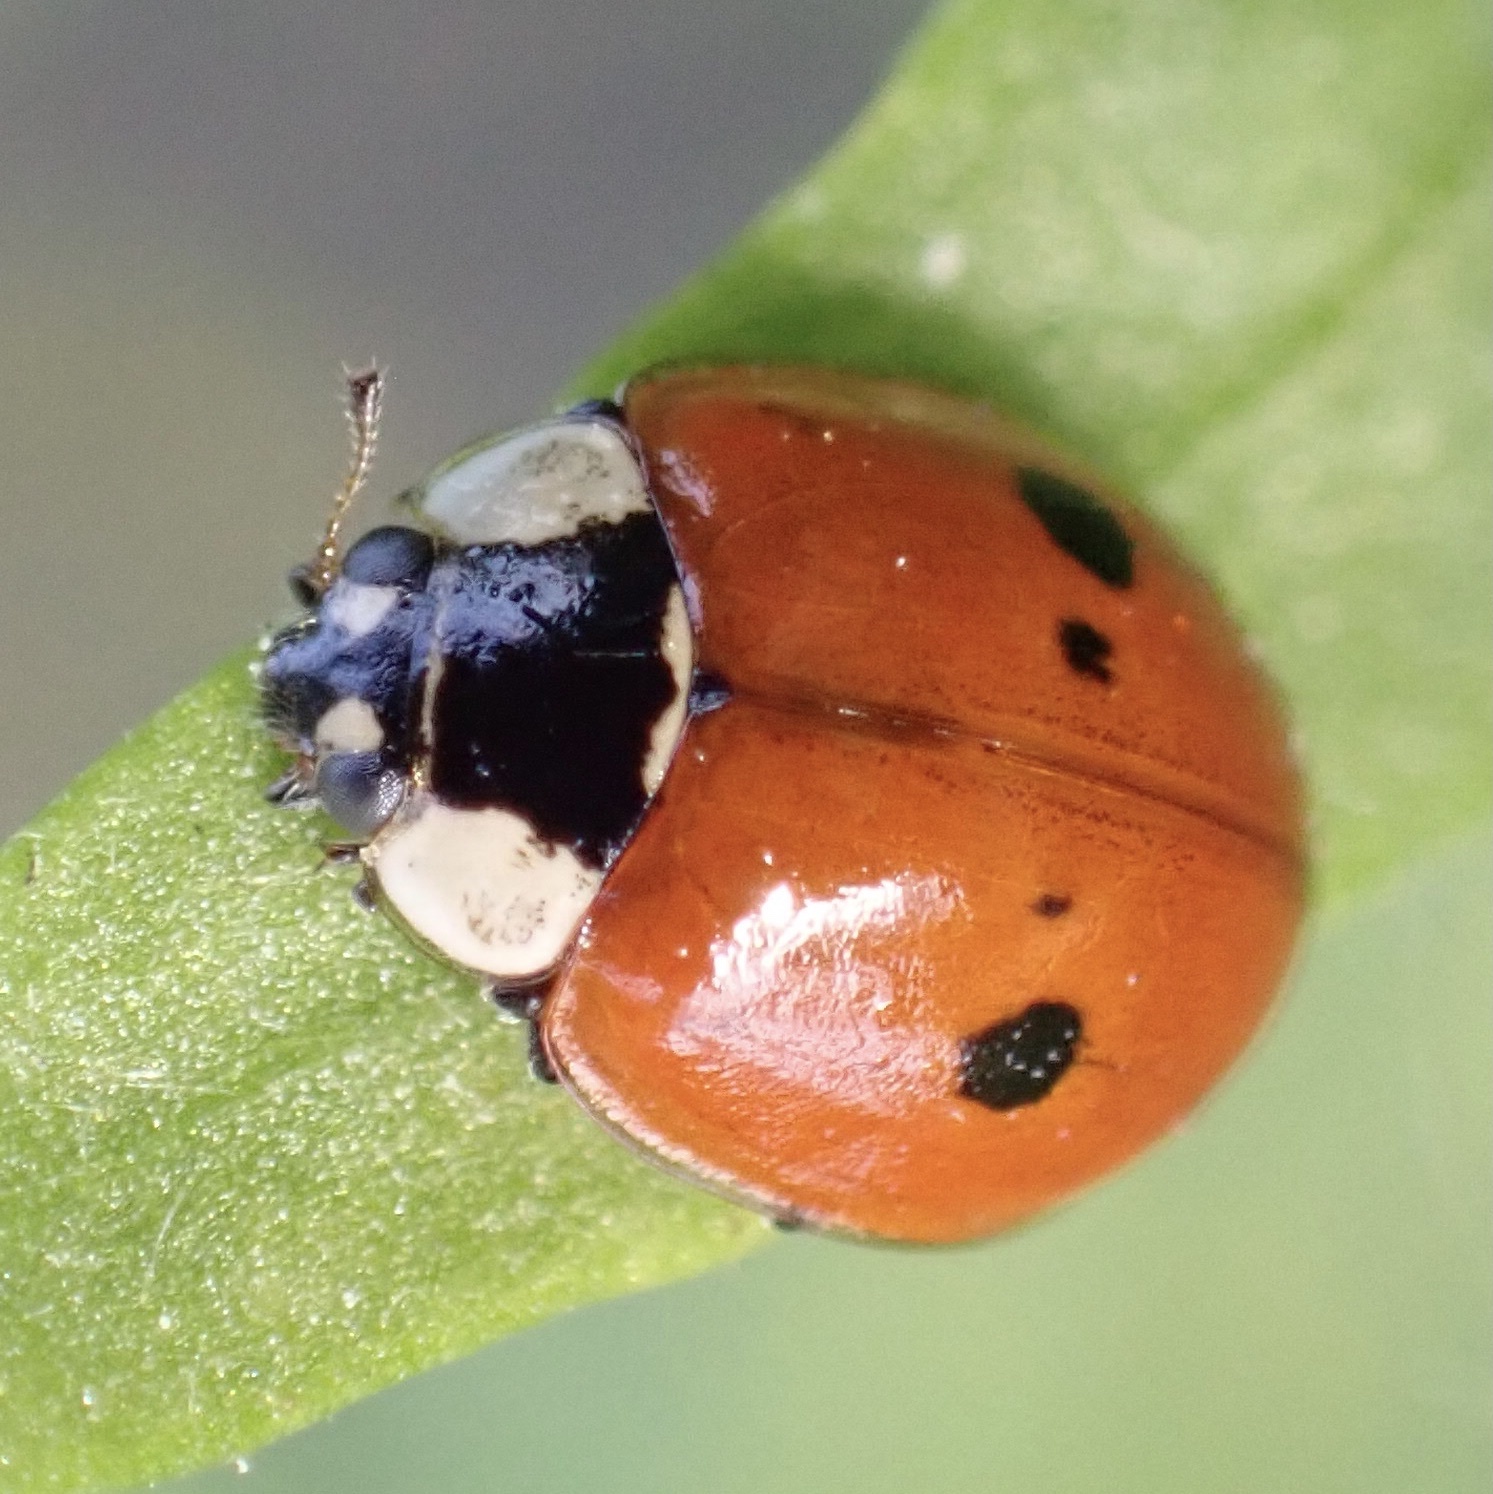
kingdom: Animalia
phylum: Arthropoda
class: Insecta
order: Coleoptera
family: Coccinellidae
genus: Adalia
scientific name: Adalia bipunctata
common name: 2-spot ladybird
